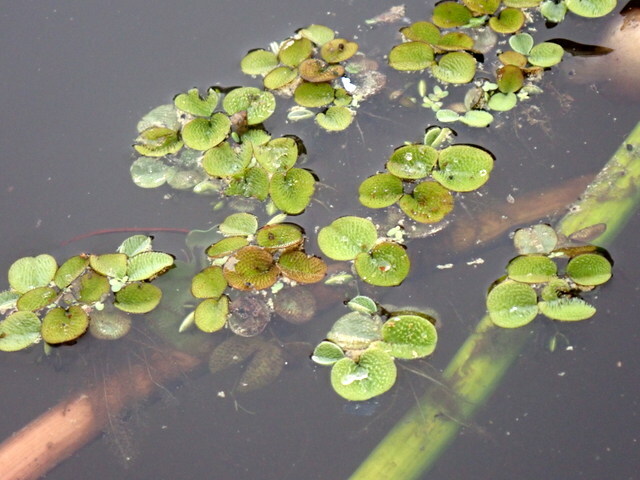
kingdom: Plantae
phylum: Tracheophyta
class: Polypodiopsida
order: Salviniales
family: Salviniaceae
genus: Salvinia
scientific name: Salvinia minima
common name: Water spangles
